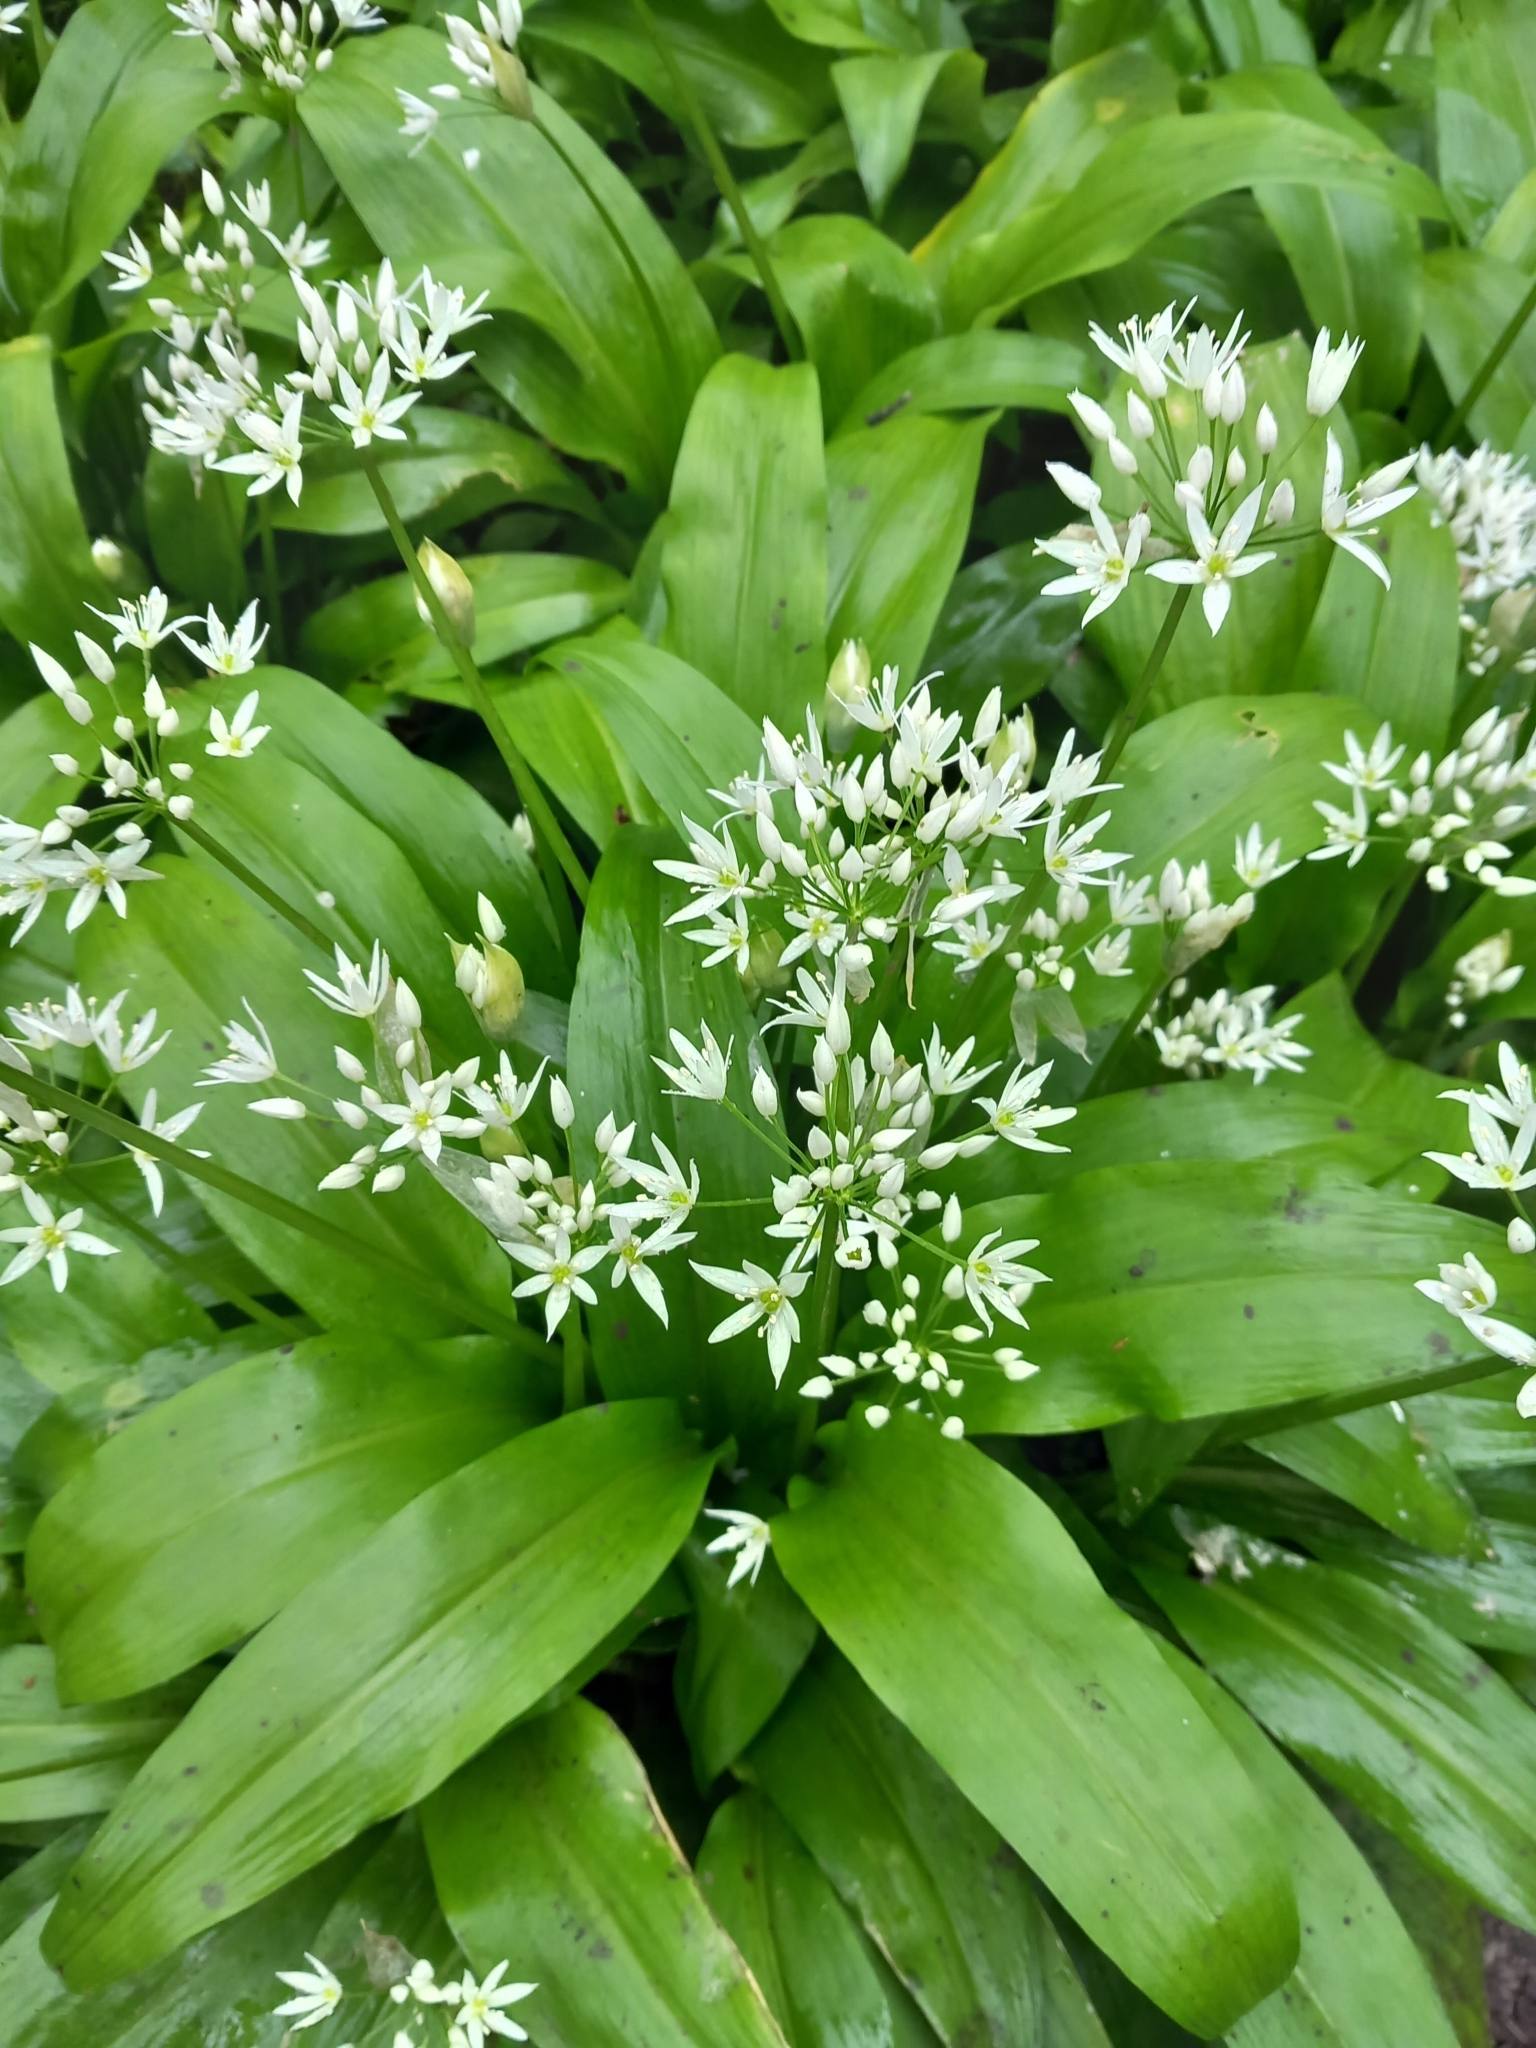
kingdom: Plantae
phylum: Tracheophyta
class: Liliopsida
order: Asparagales
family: Amaryllidaceae
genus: Allium
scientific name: Allium ursinum
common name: Ramsons
